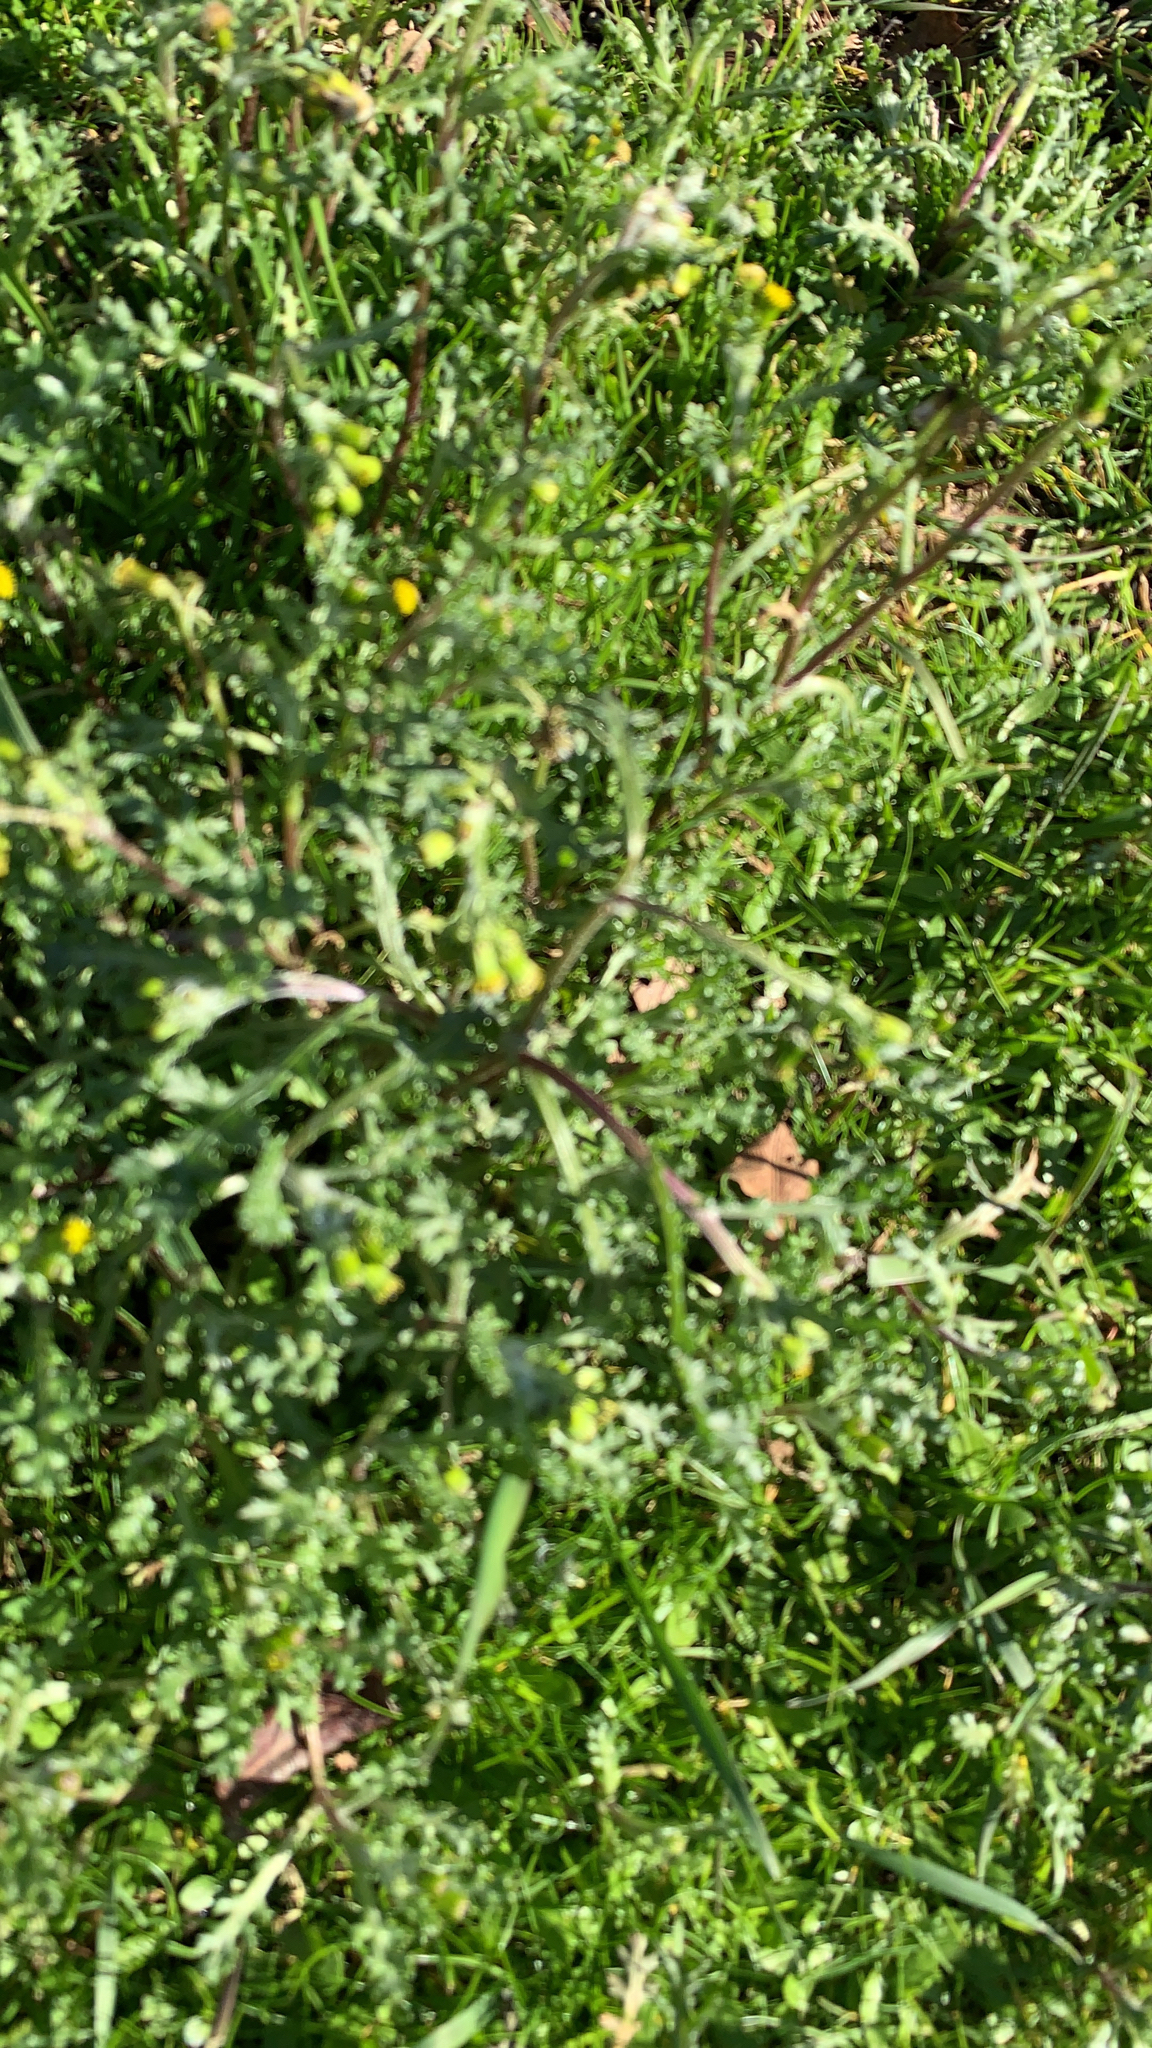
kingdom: Plantae
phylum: Tracheophyta
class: Magnoliopsida
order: Asterales
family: Asteraceae
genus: Senecio
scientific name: Senecio vulgaris
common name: Old-man-in-the-spring
